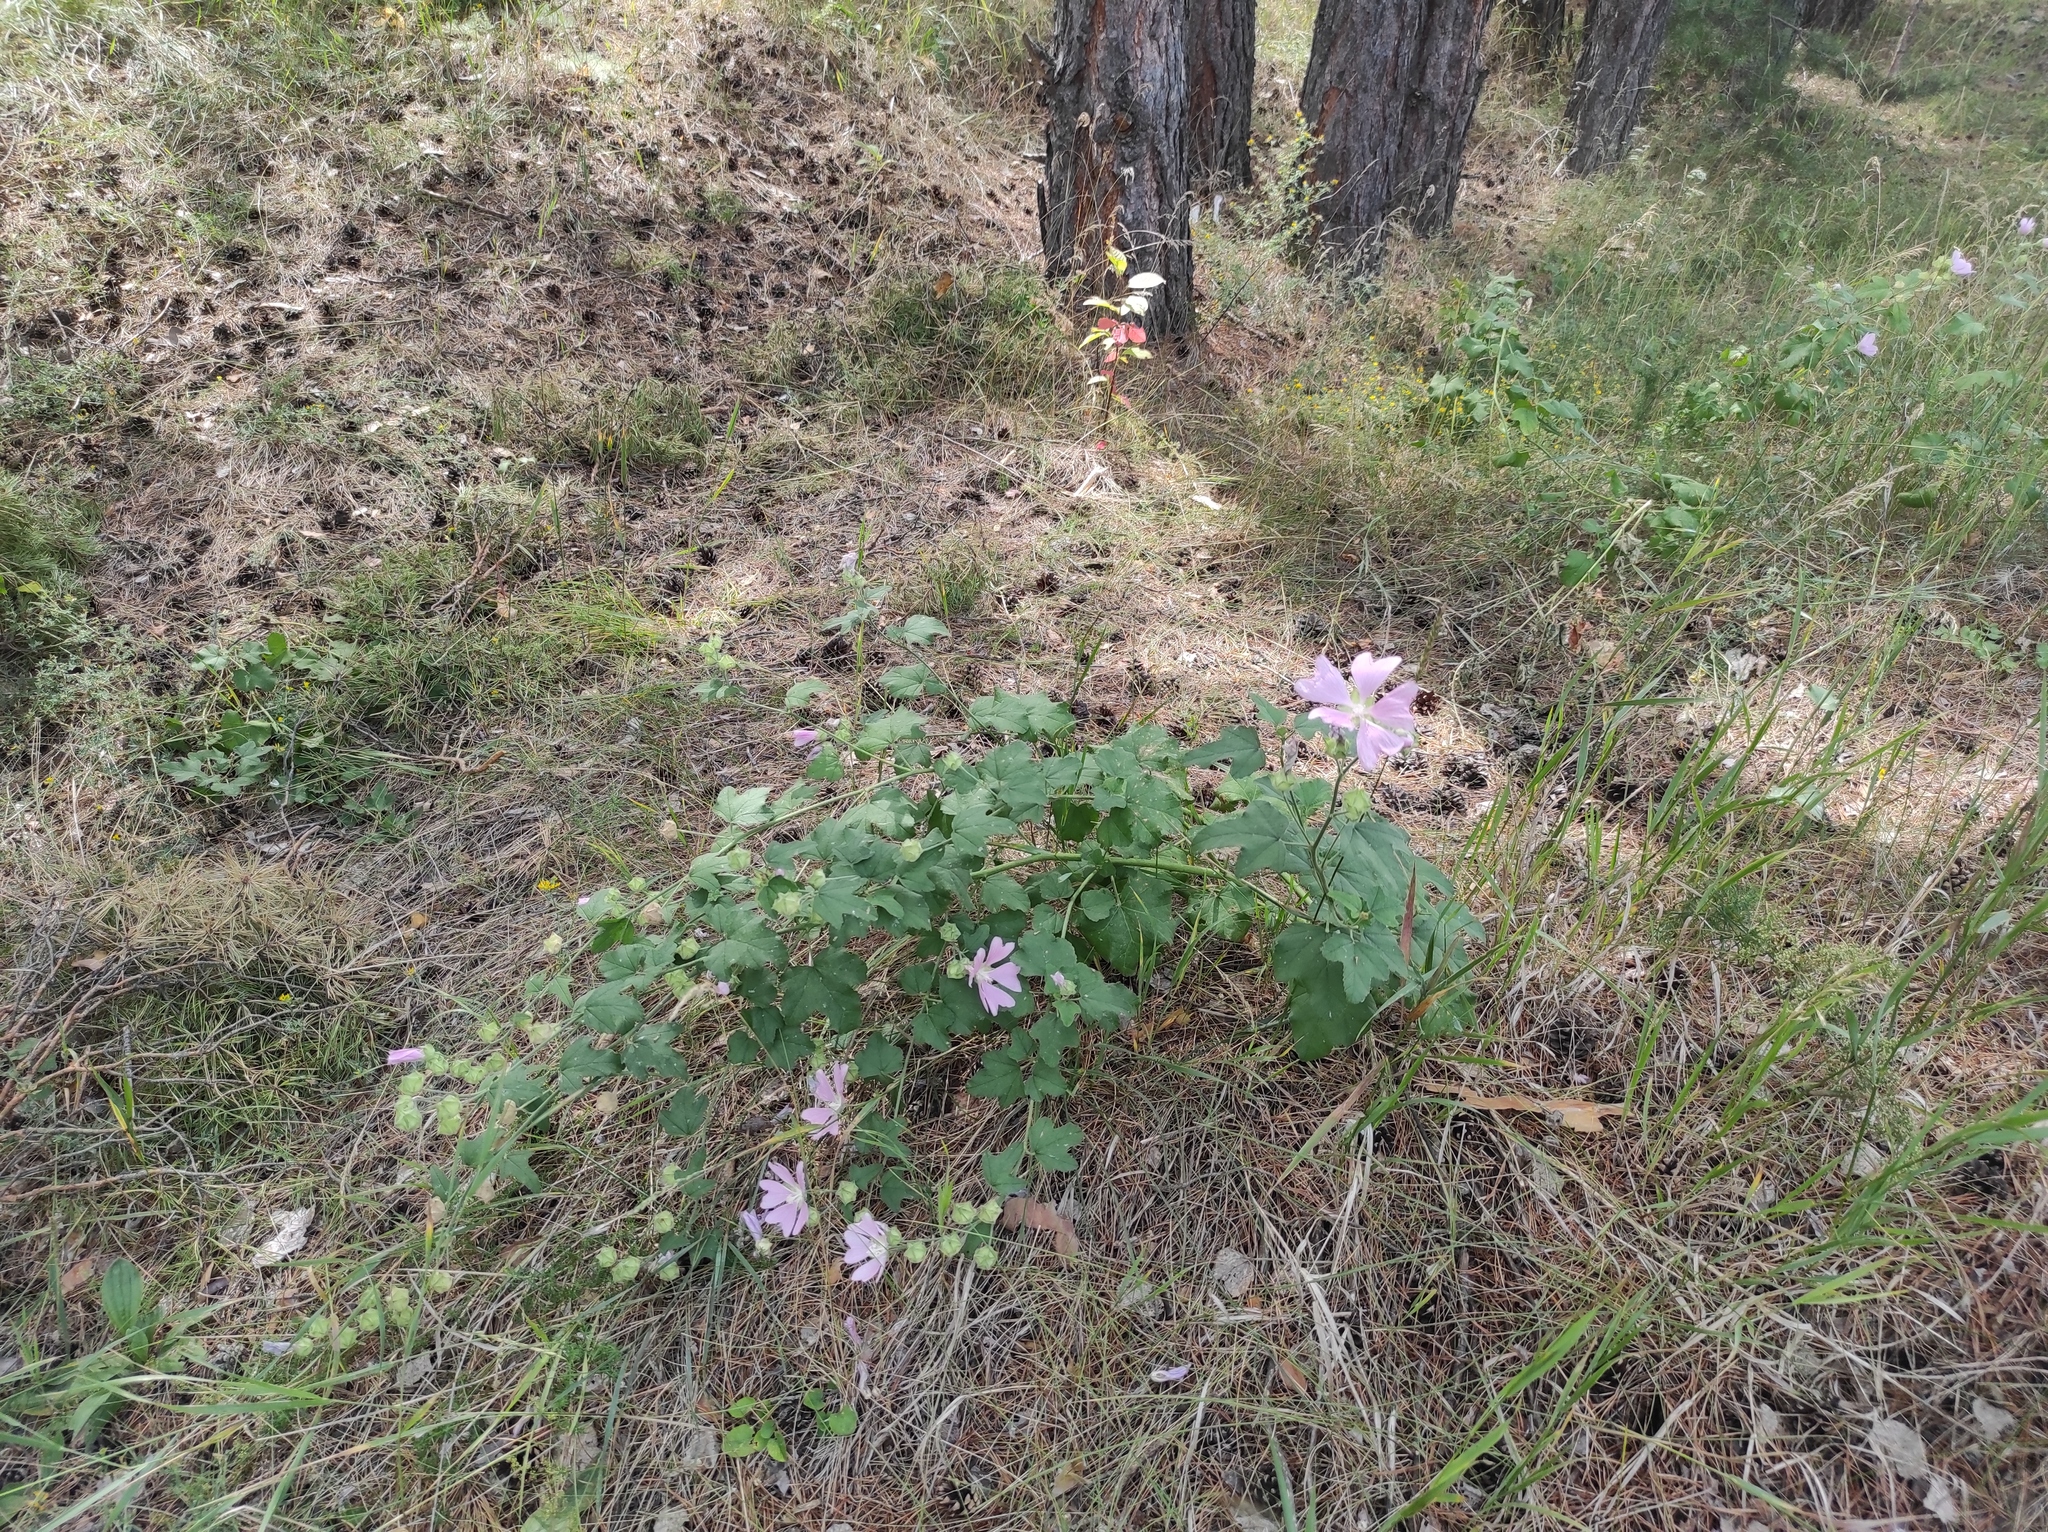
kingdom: Plantae
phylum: Tracheophyta
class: Magnoliopsida
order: Malvales
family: Malvaceae
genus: Malva
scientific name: Malva thuringiaca
